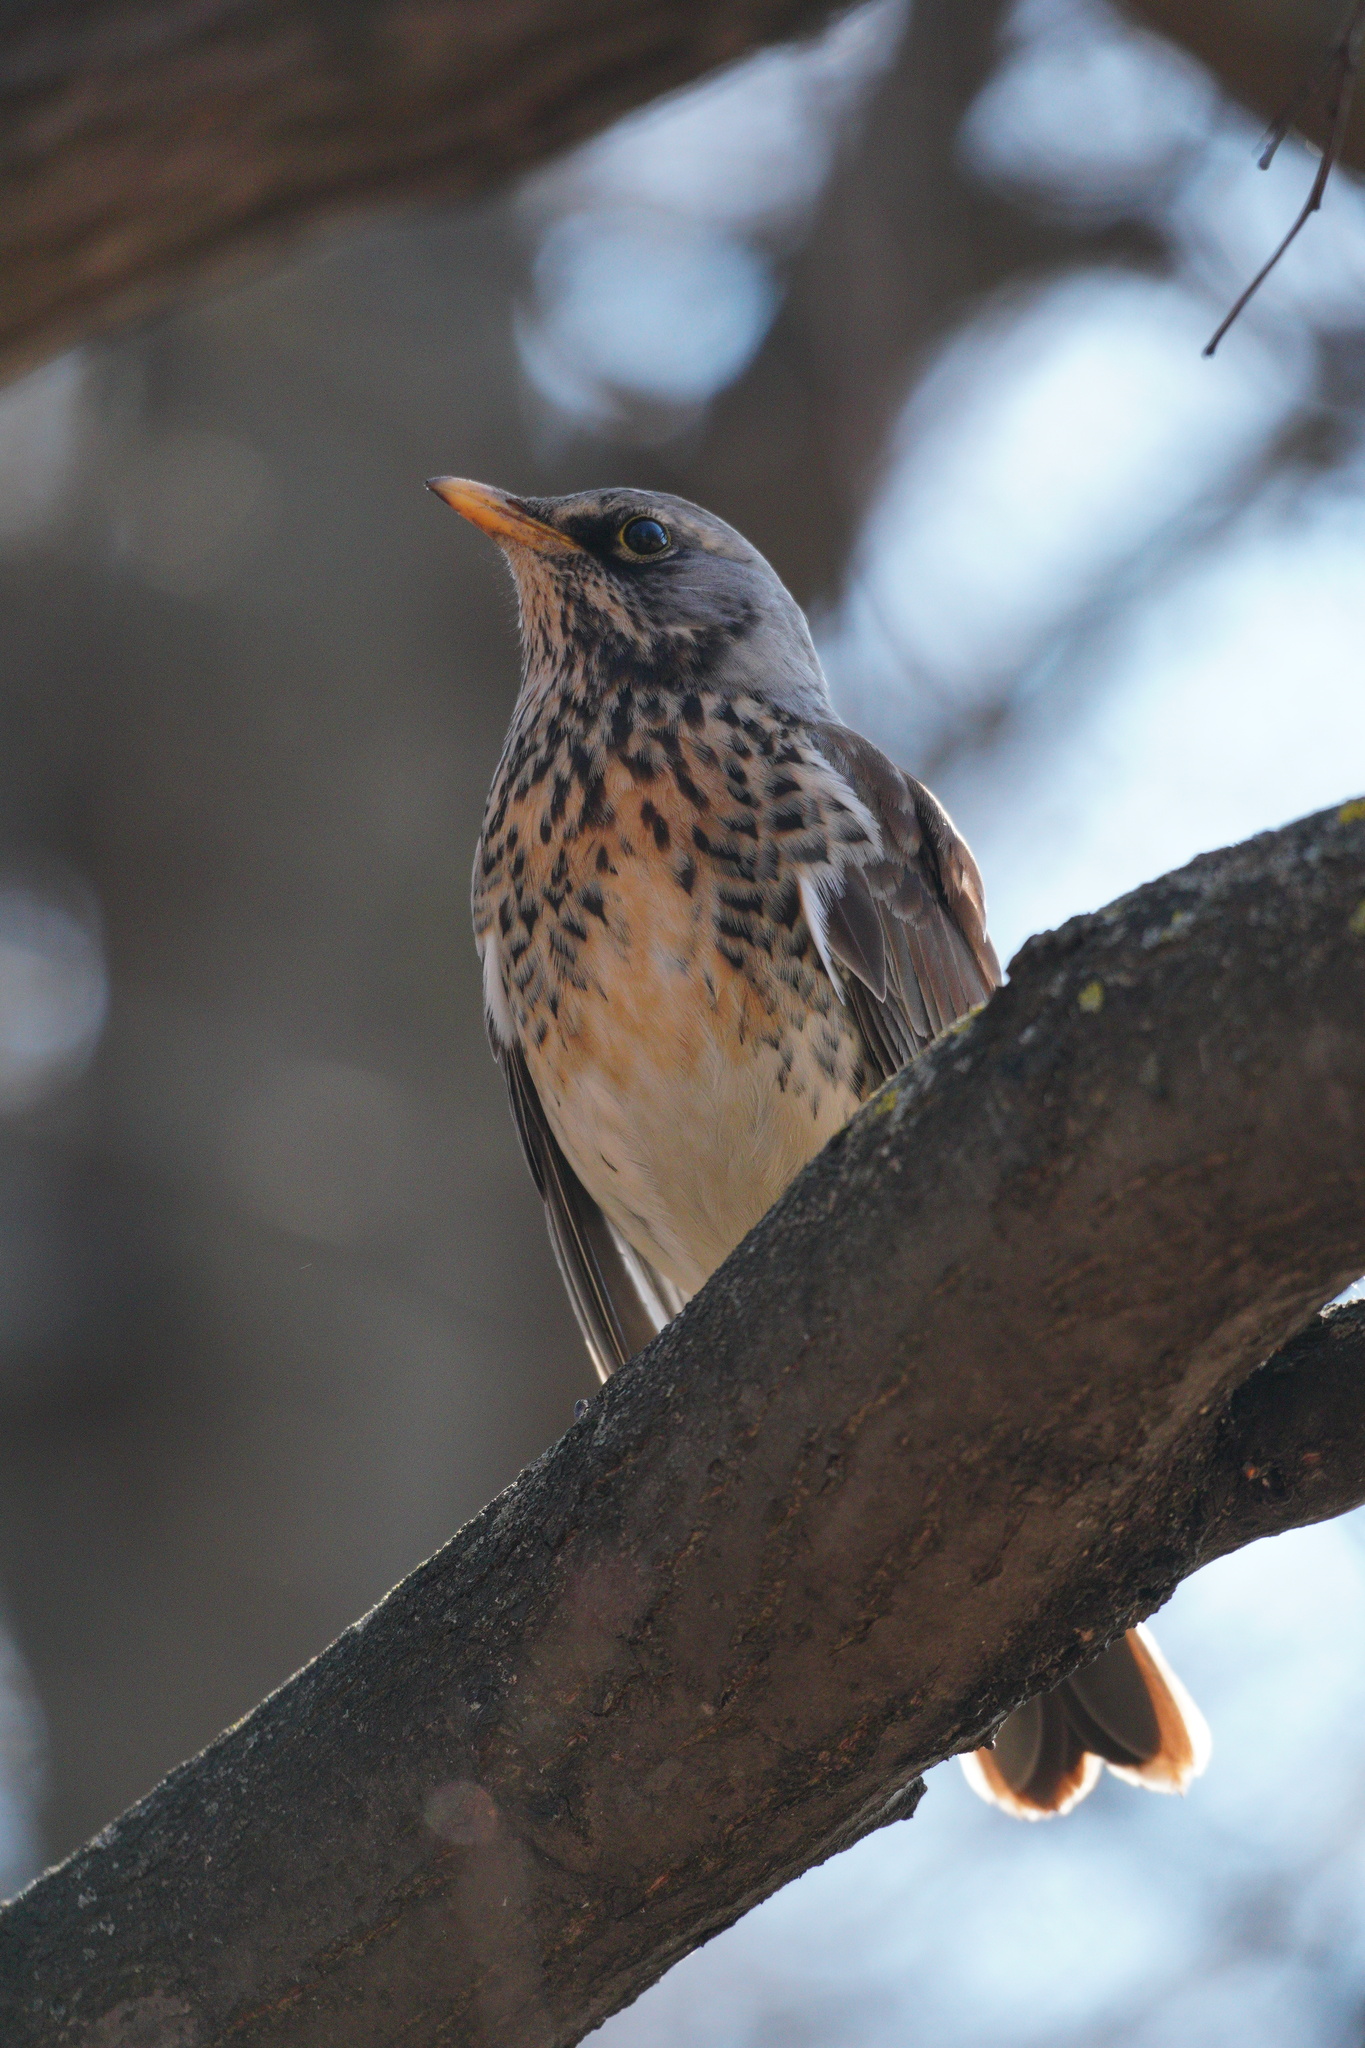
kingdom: Animalia
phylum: Chordata
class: Aves
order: Passeriformes
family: Turdidae
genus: Turdus
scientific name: Turdus pilaris
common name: Fieldfare
